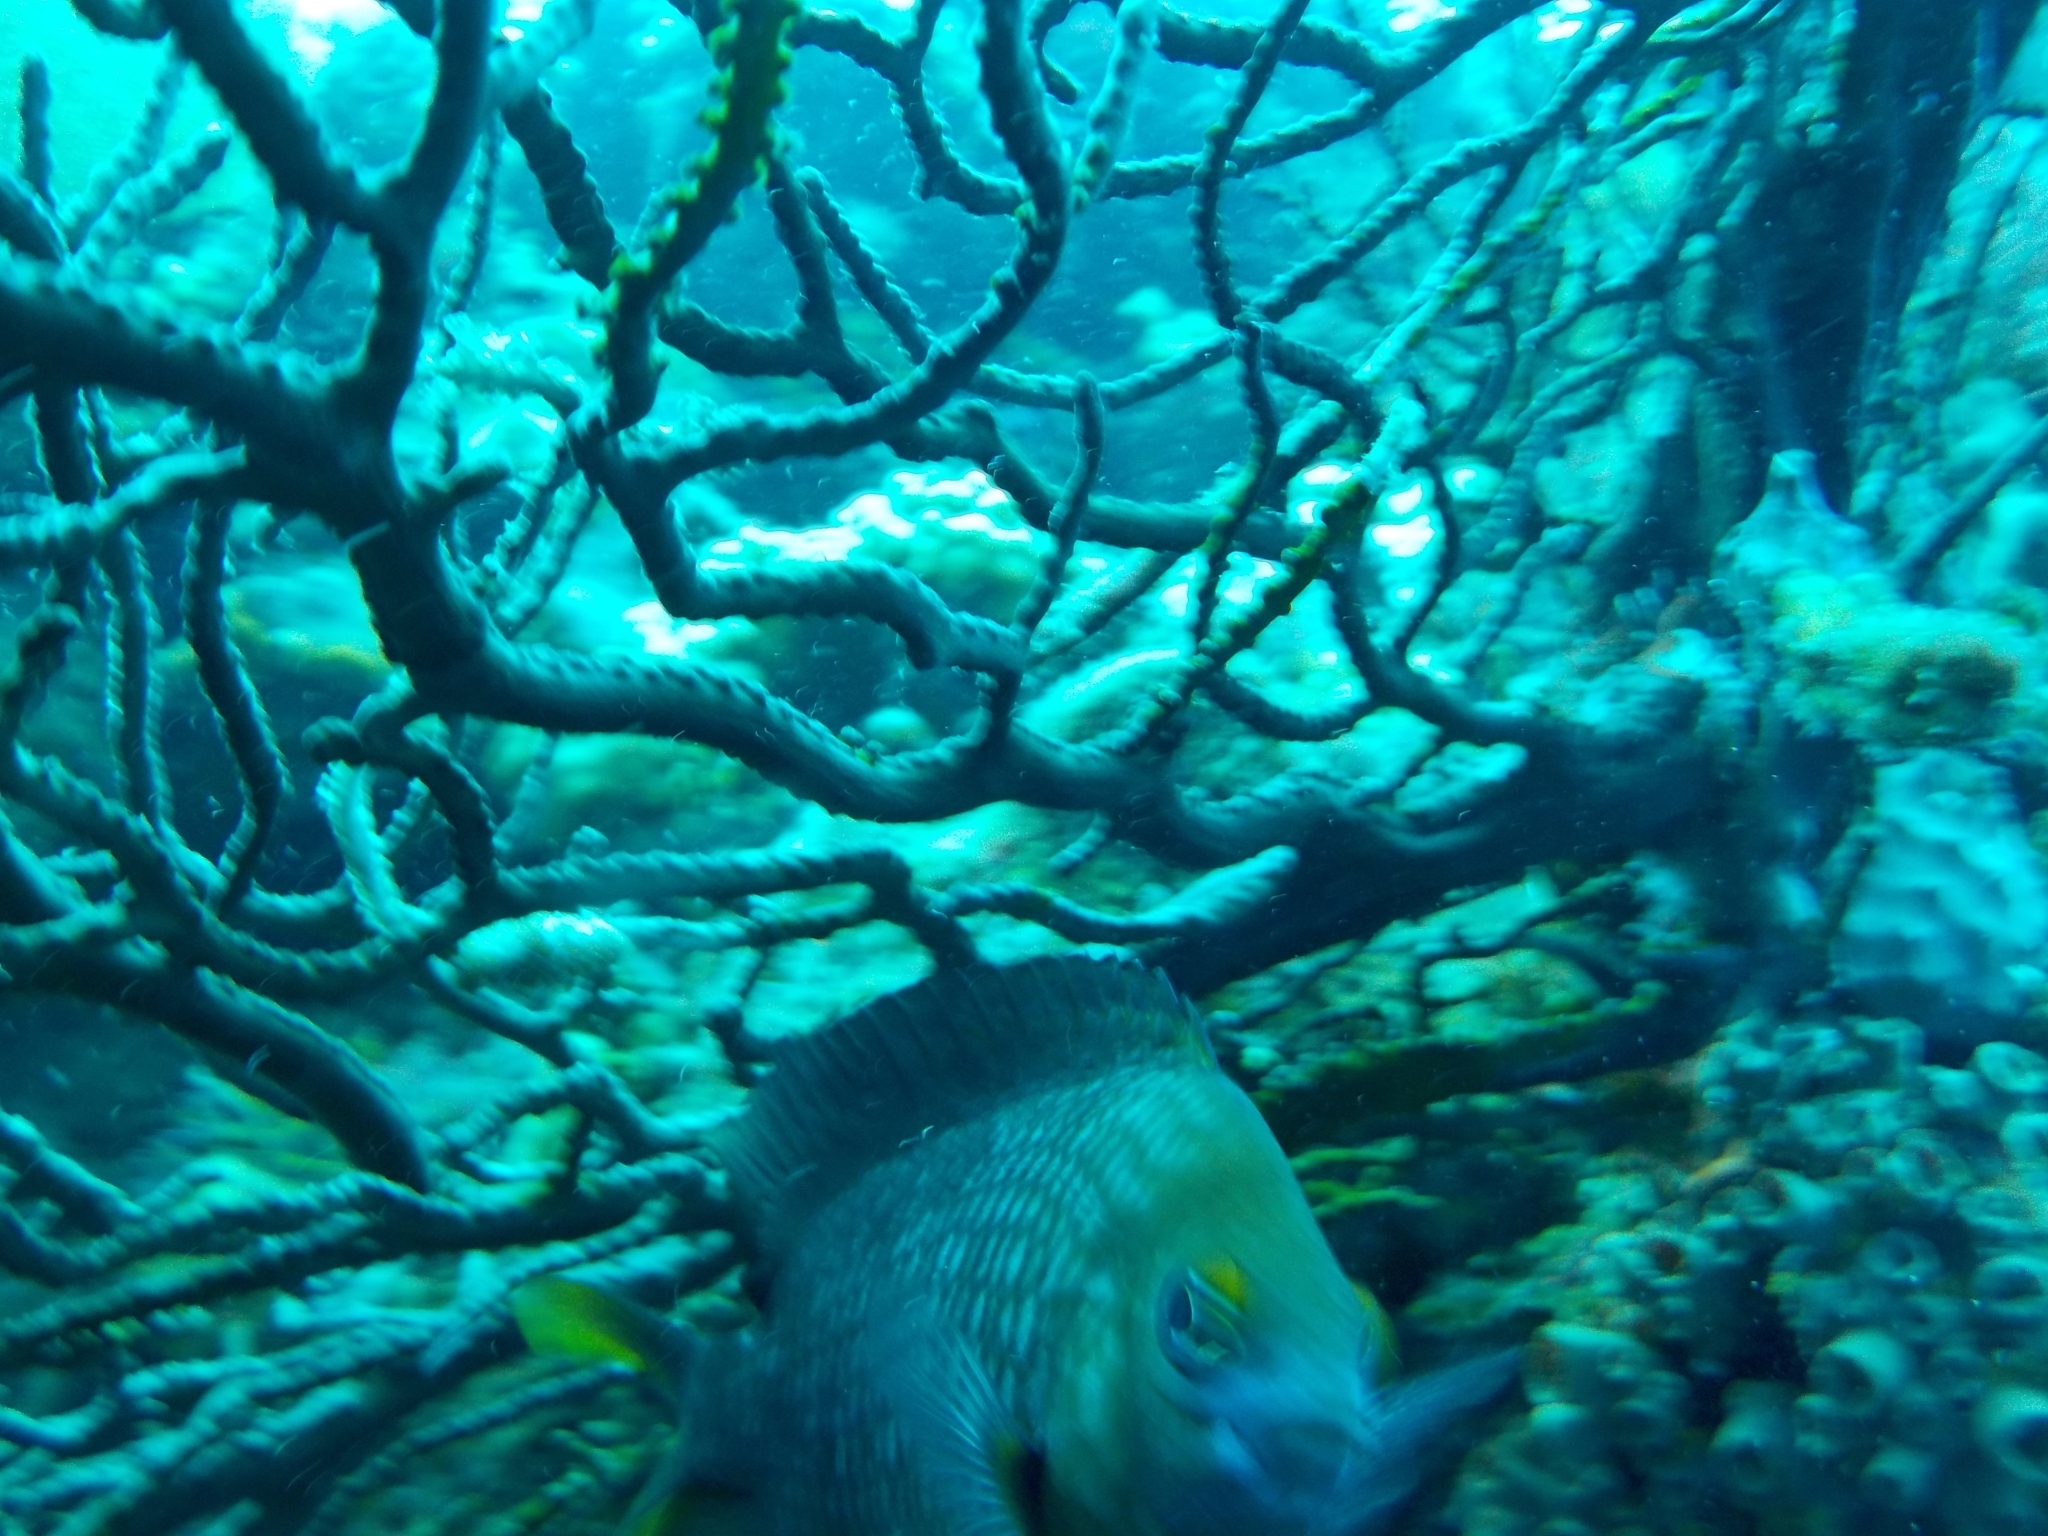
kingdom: Animalia
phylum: Chordata
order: Perciformes
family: Pomacentridae
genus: Stegastes
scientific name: Stegastes planifrons
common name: Threespot damselfish
